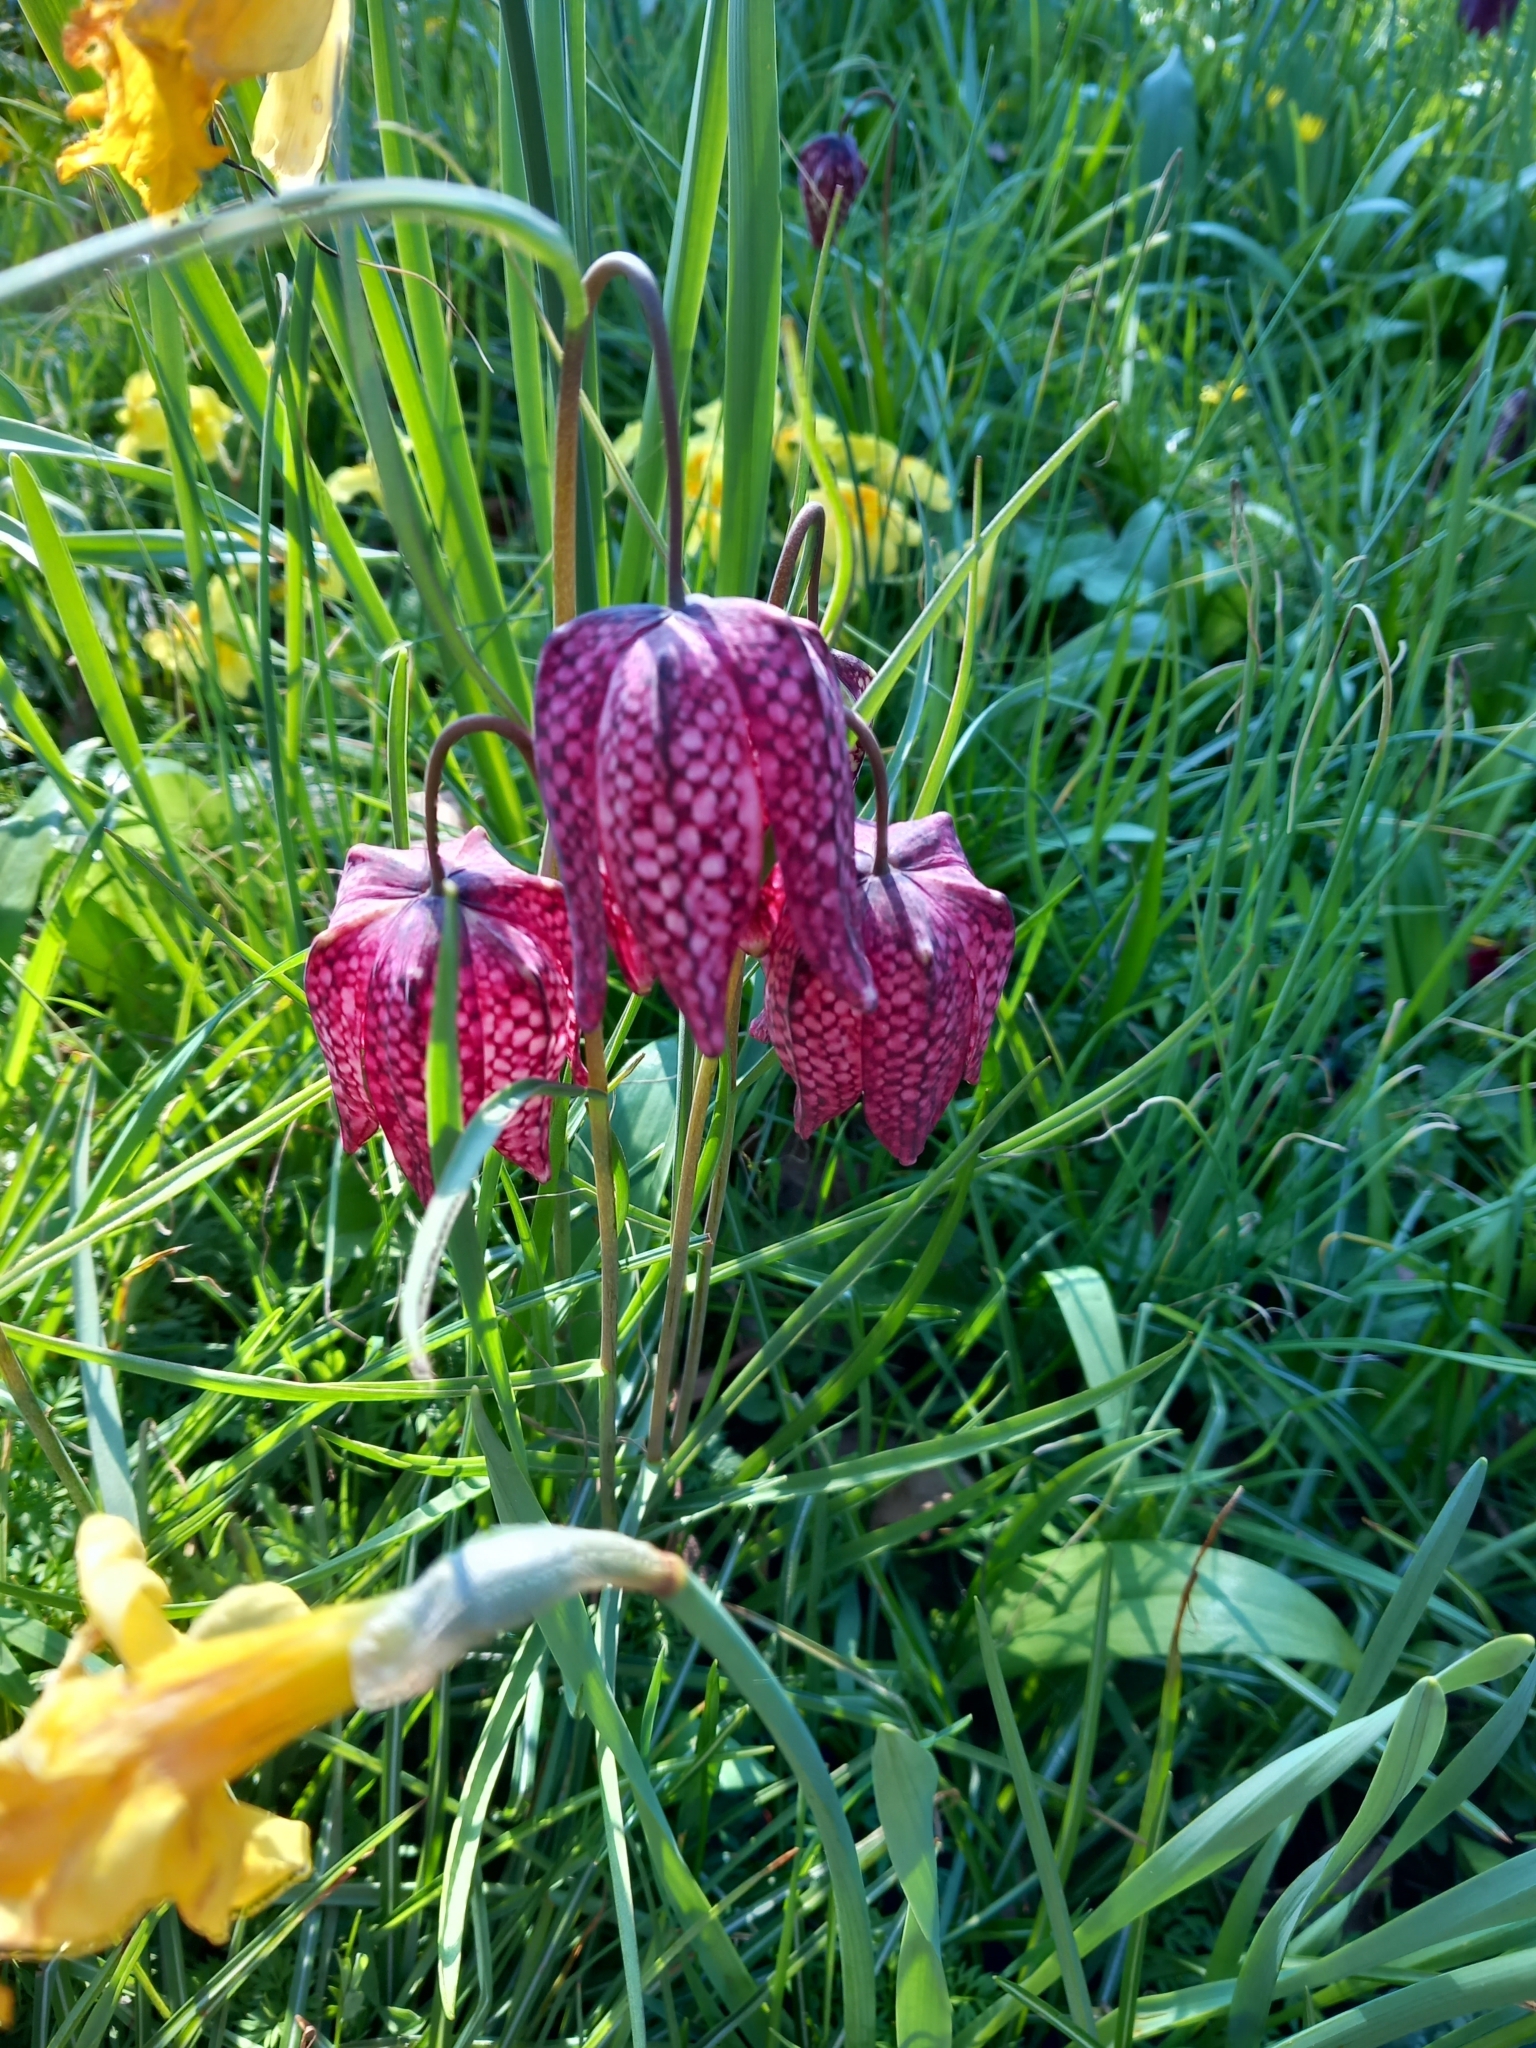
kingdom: Plantae
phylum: Tracheophyta
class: Liliopsida
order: Liliales
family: Liliaceae
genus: Fritillaria
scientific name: Fritillaria meleagris
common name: Fritillary
